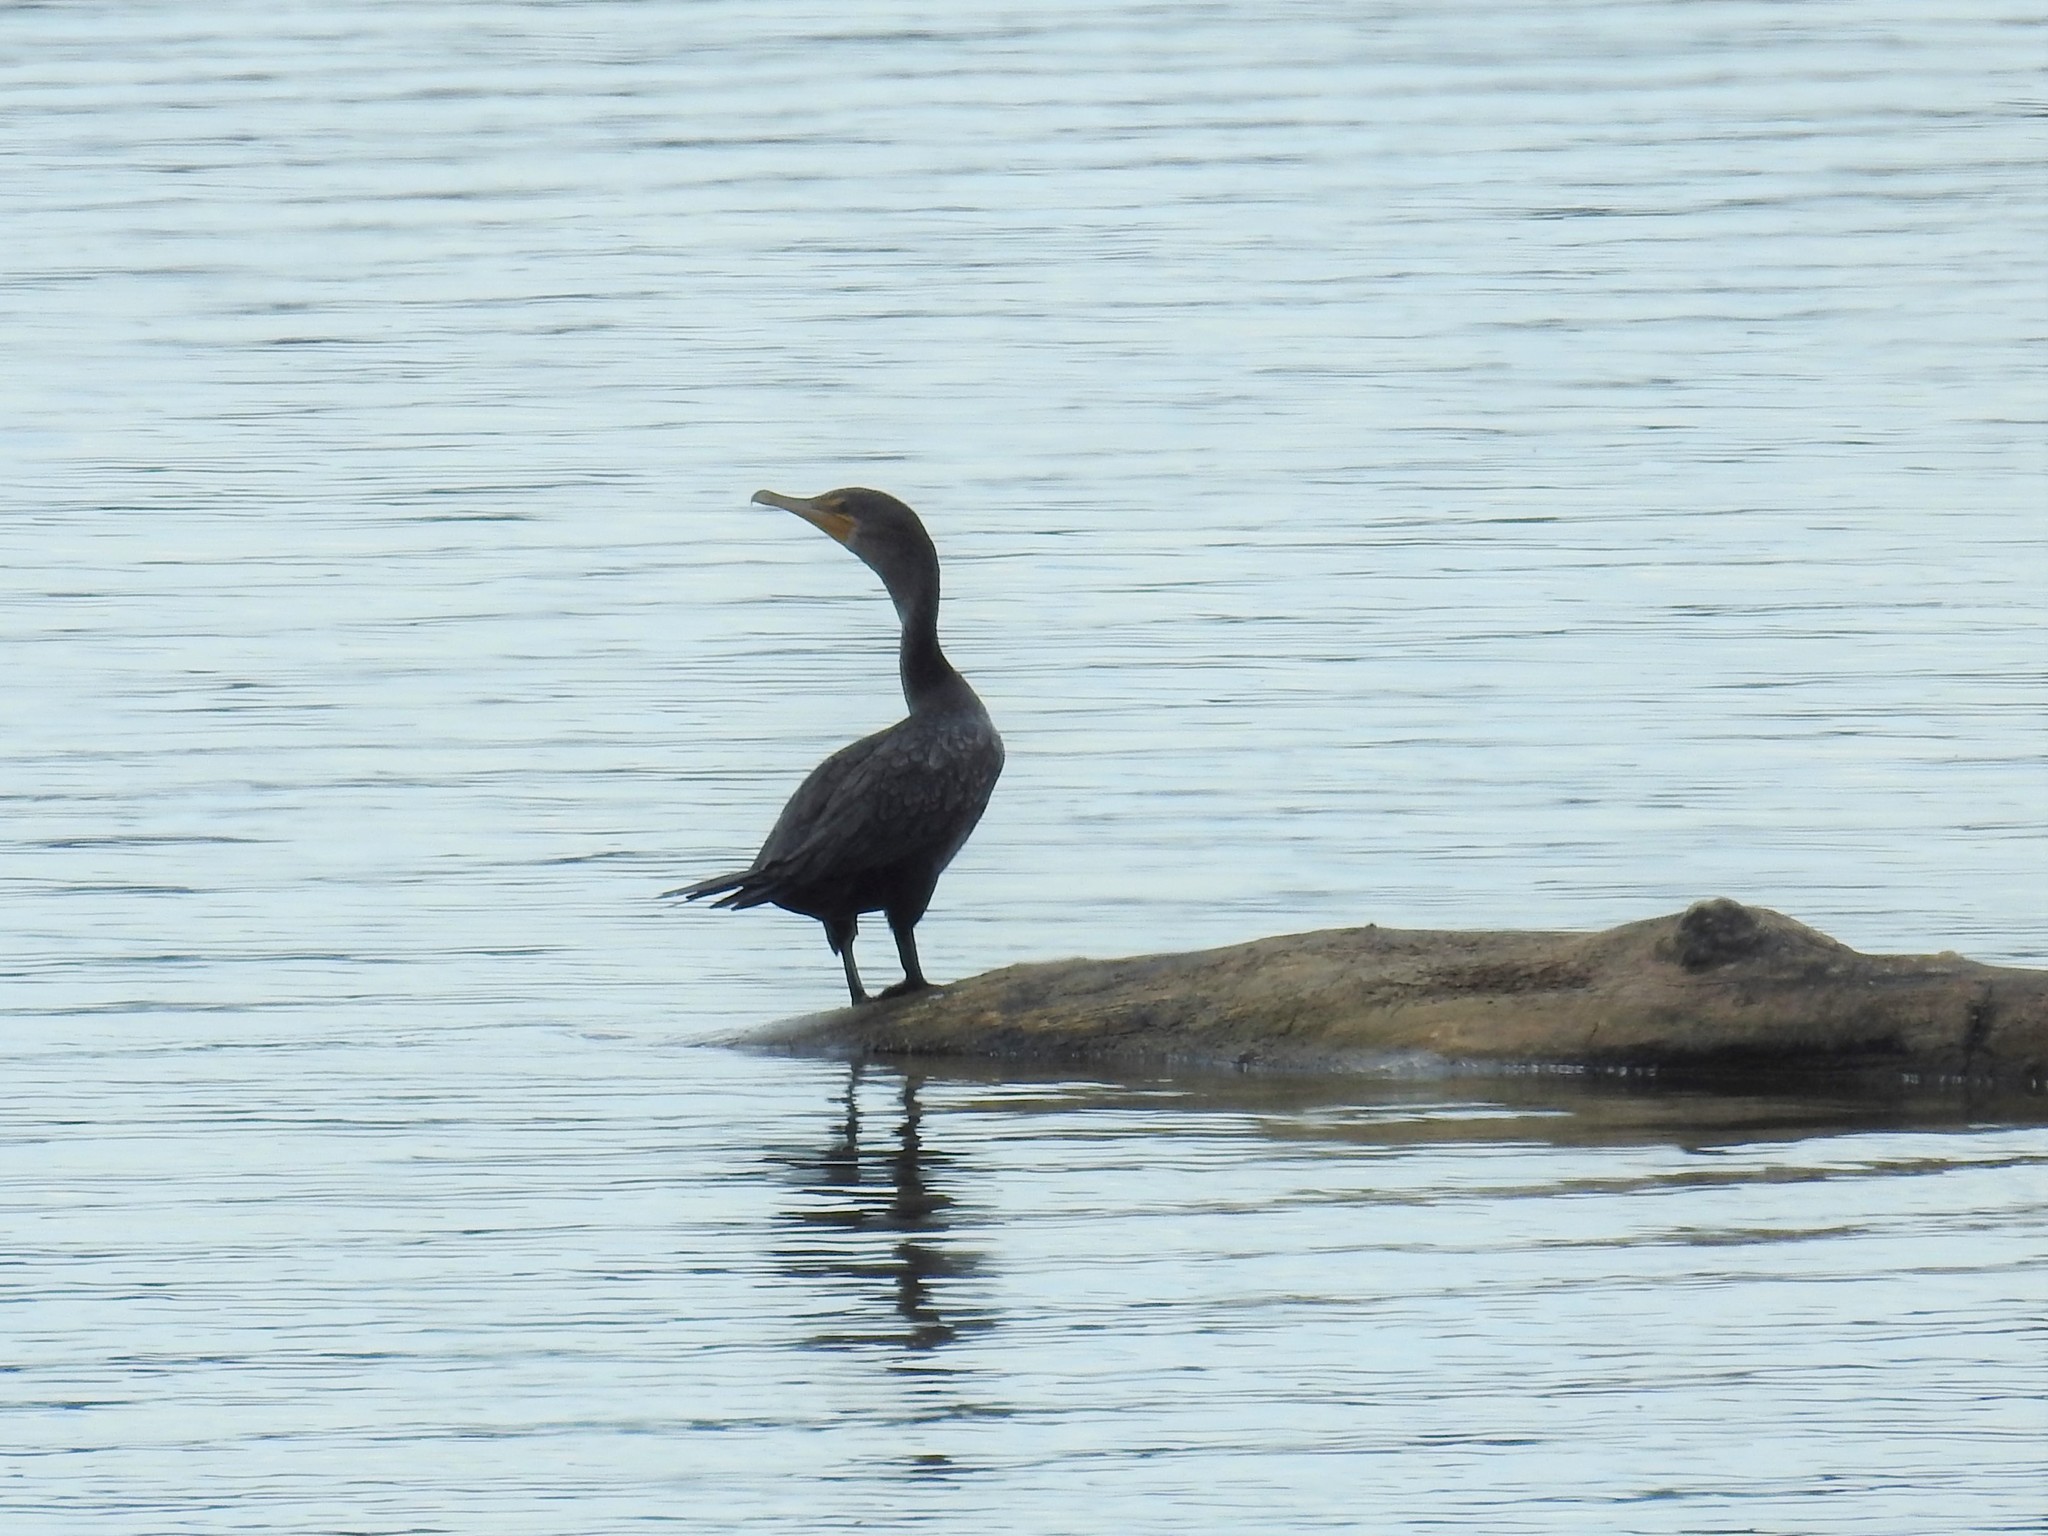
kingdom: Animalia
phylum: Chordata
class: Aves
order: Suliformes
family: Phalacrocoracidae
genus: Phalacrocorax
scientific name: Phalacrocorax auritus
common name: Double-crested cormorant
